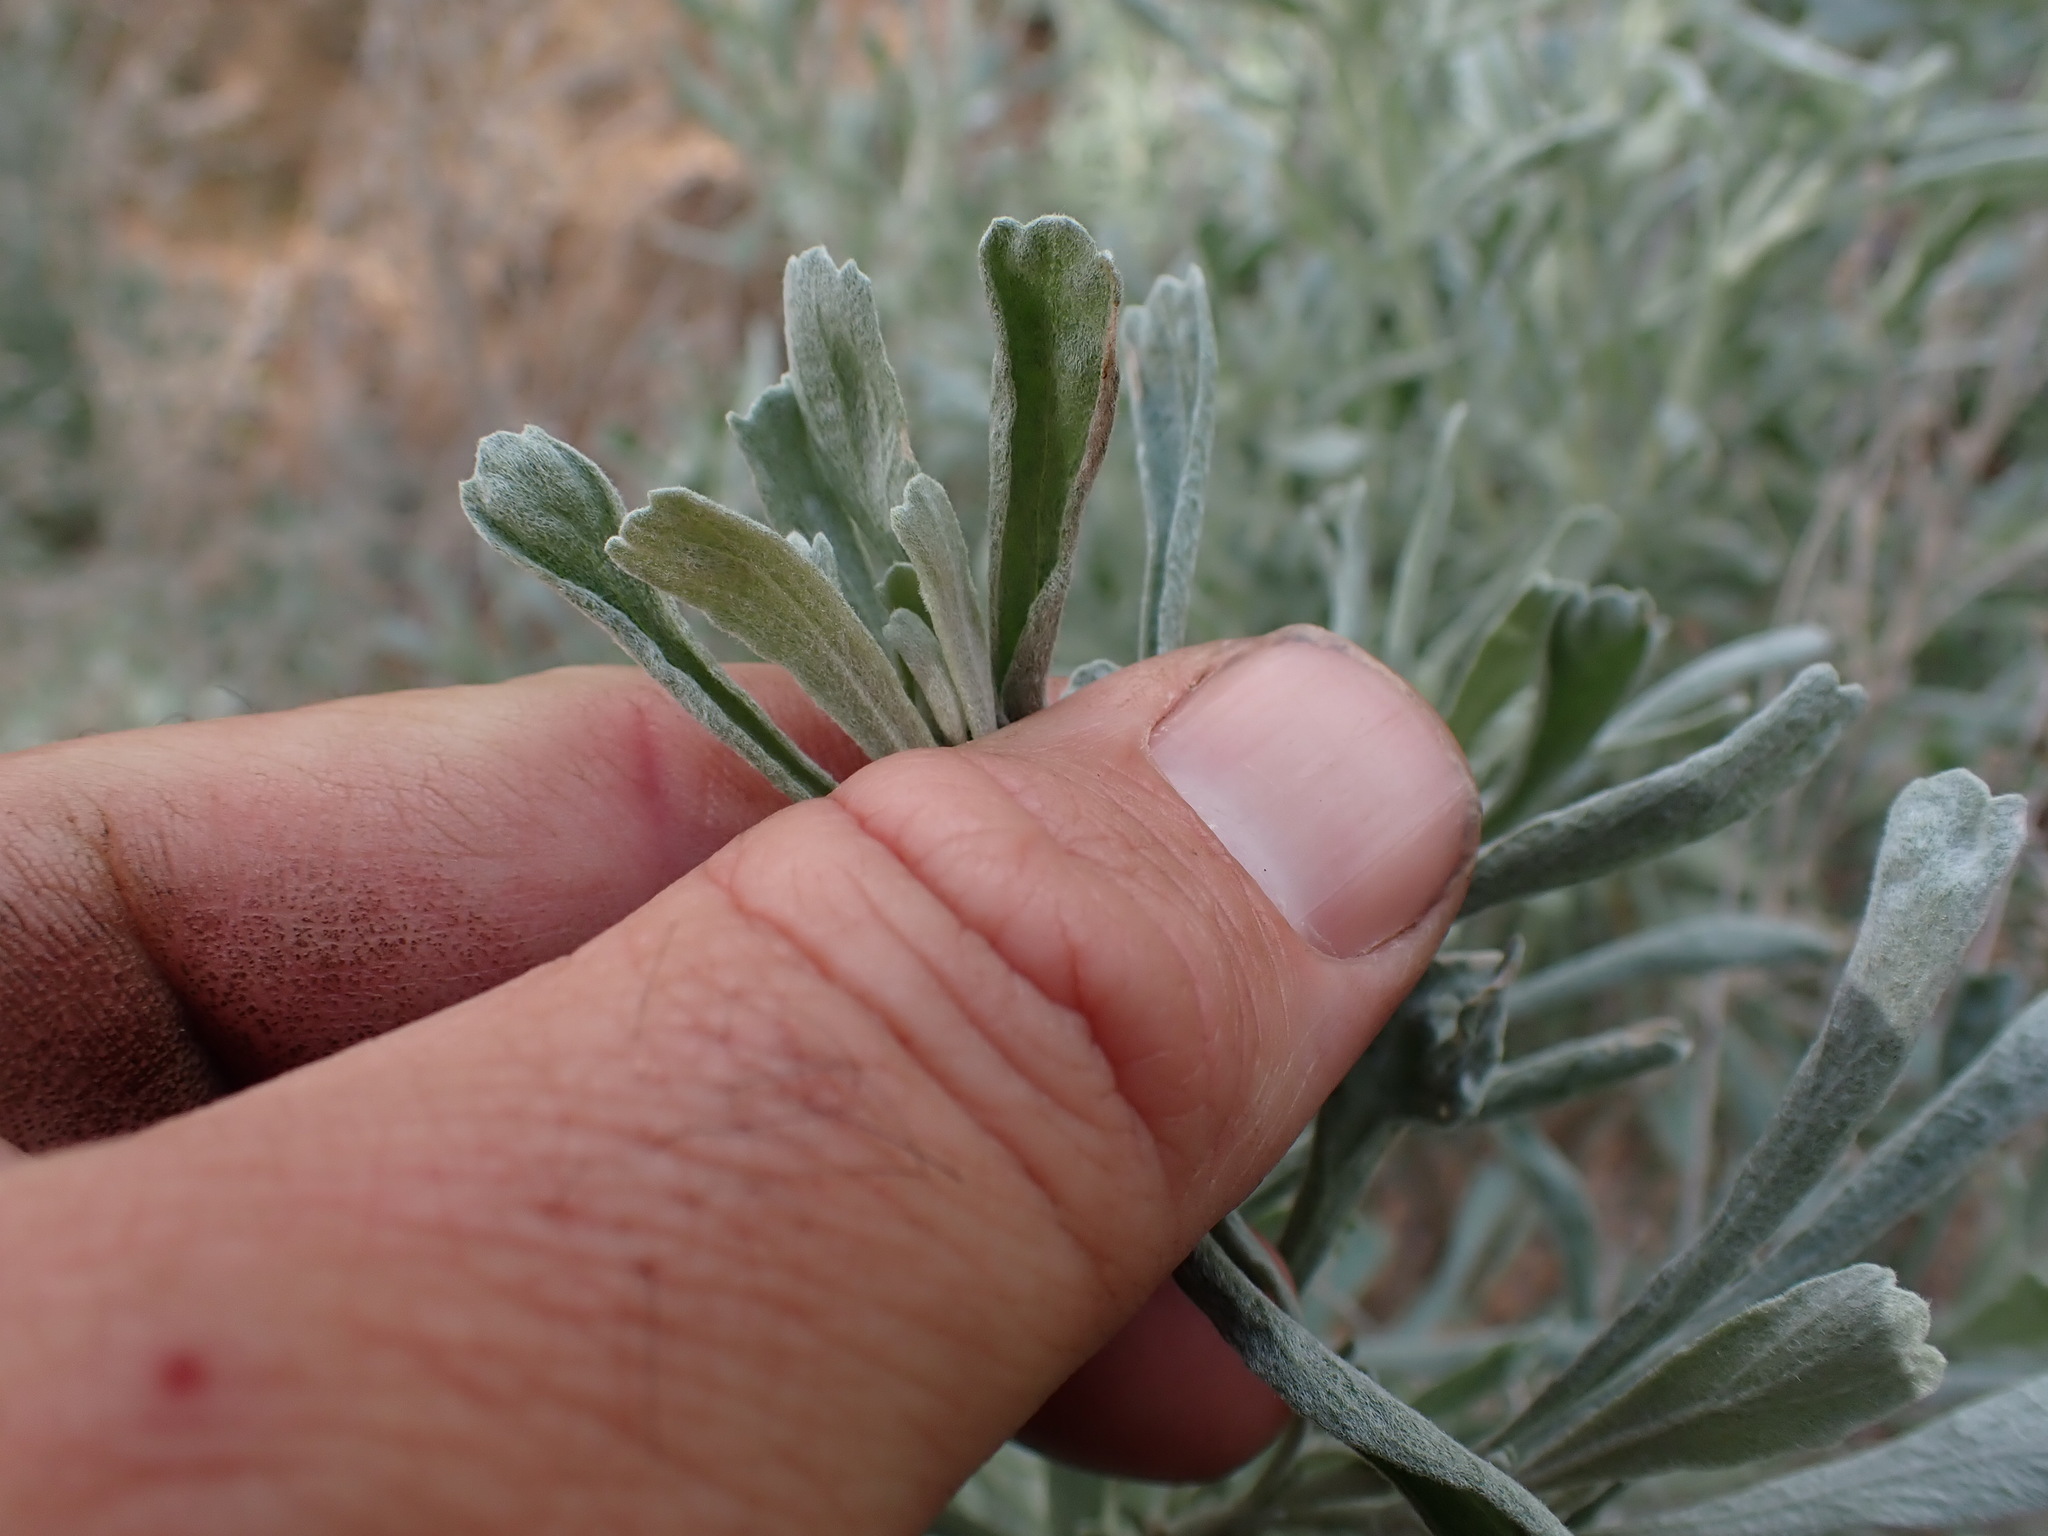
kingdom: Plantae
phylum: Tracheophyta
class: Magnoliopsida
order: Asterales
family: Asteraceae
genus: Artemisia
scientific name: Artemisia tridentata
